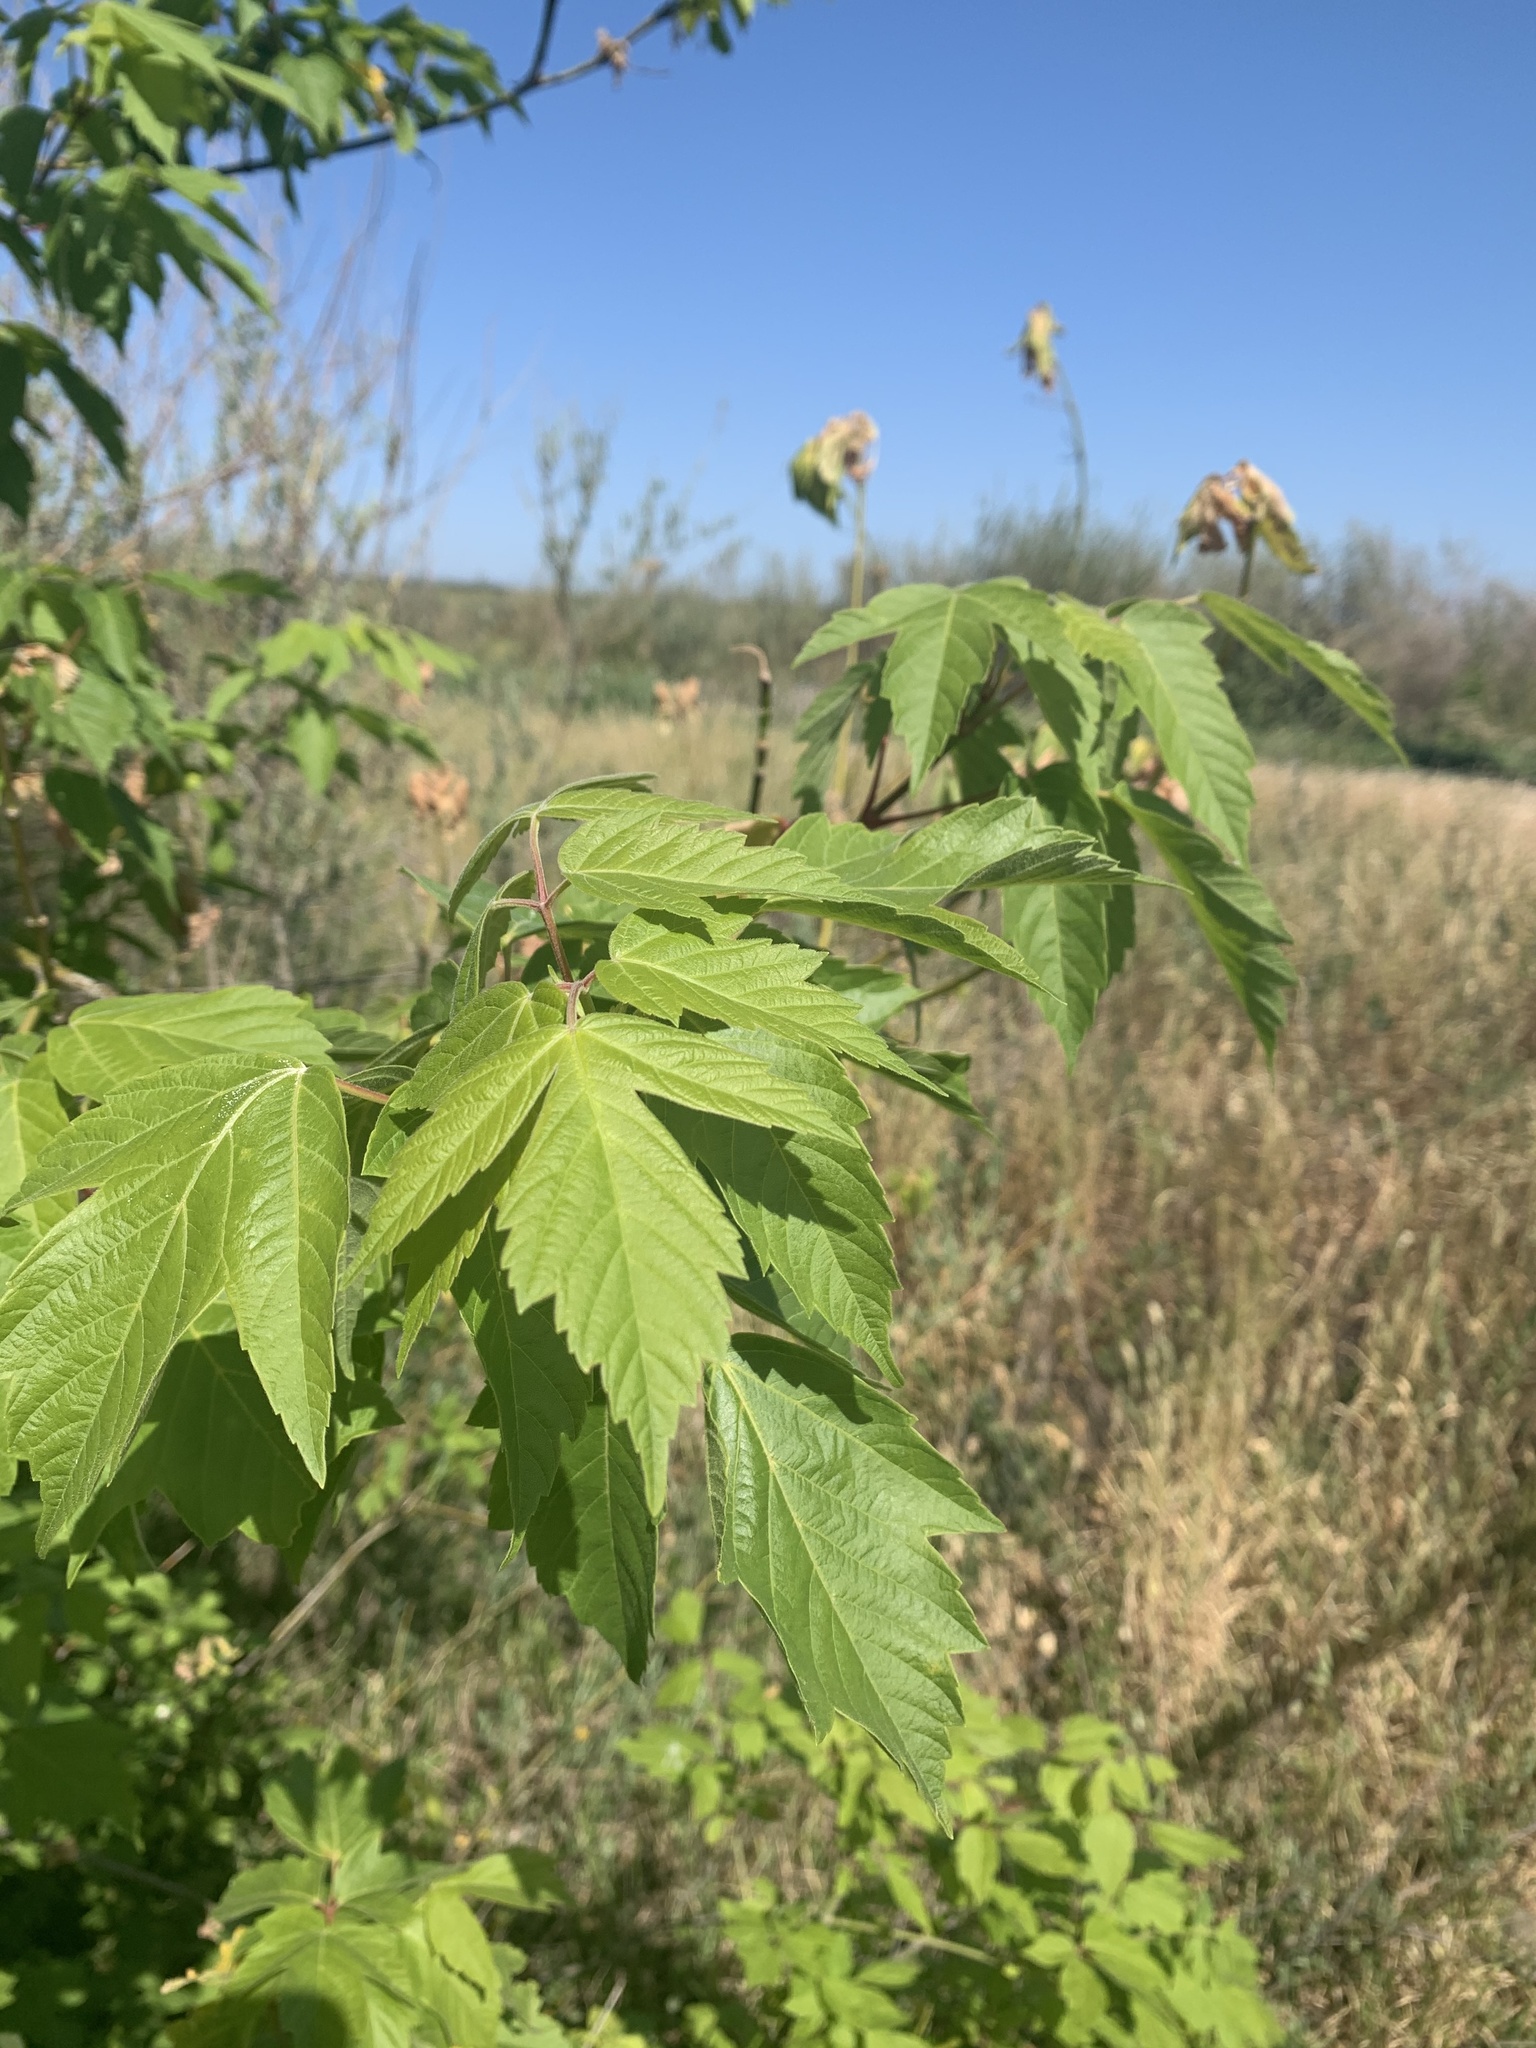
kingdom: Plantae
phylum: Tracheophyta
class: Magnoliopsida
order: Sapindales
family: Sapindaceae
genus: Acer
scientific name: Acer negundo
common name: Ashleaf maple
